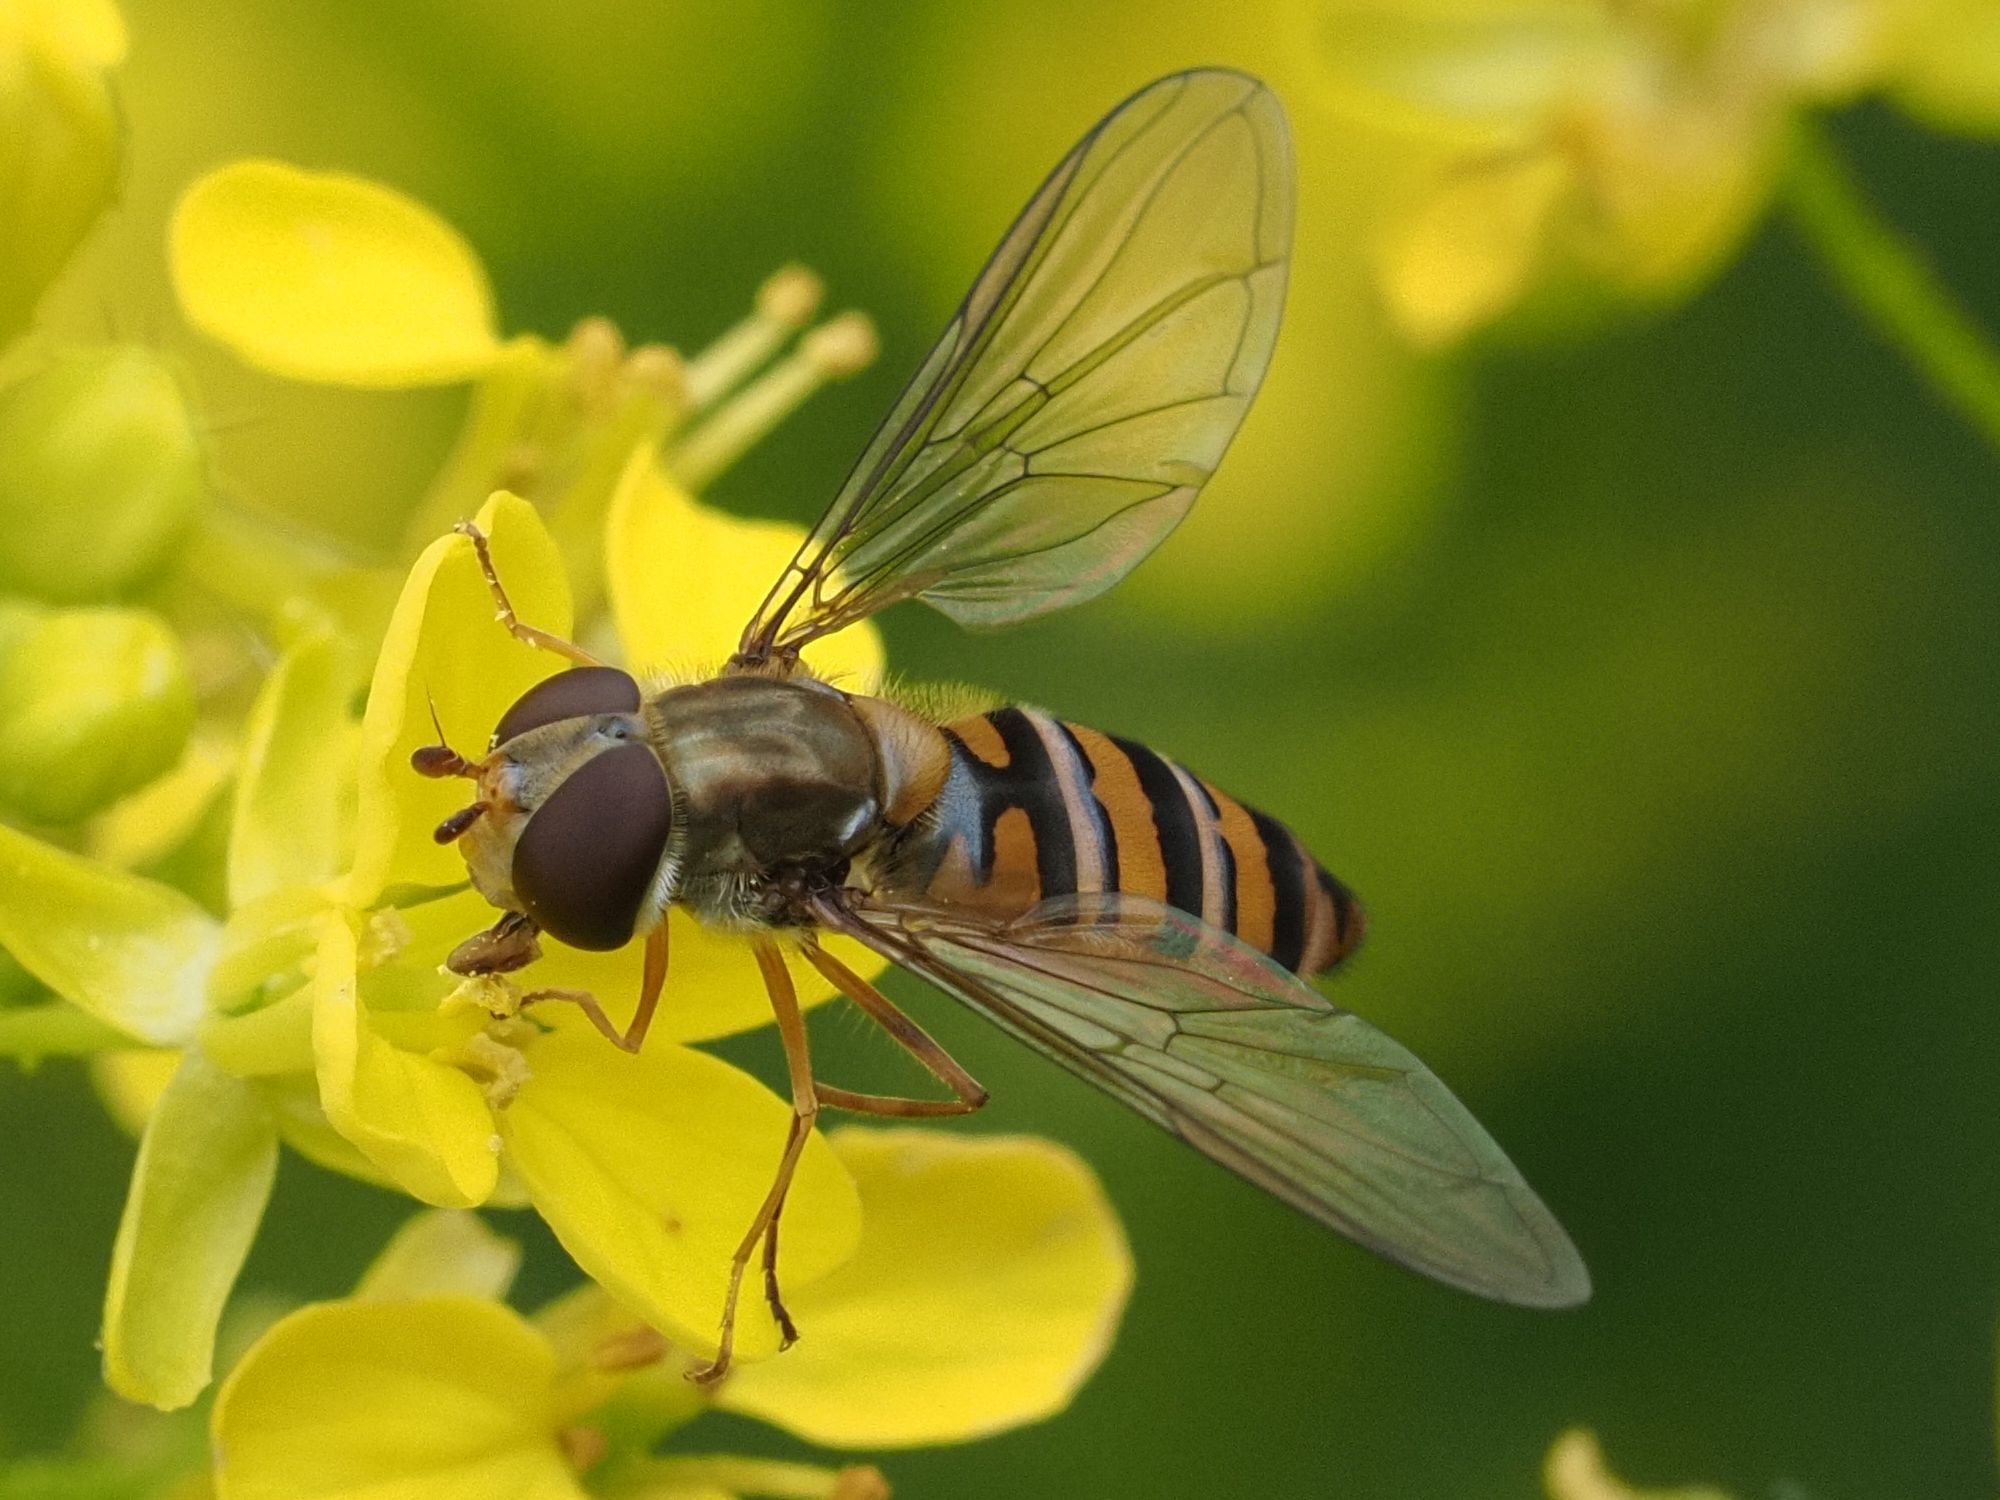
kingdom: Animalia
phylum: Arthropoda
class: Insecta
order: Diptera
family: Syrphidae
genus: Episyrphus
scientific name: Episyrphus balteatus
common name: Marmalade hoverfly
